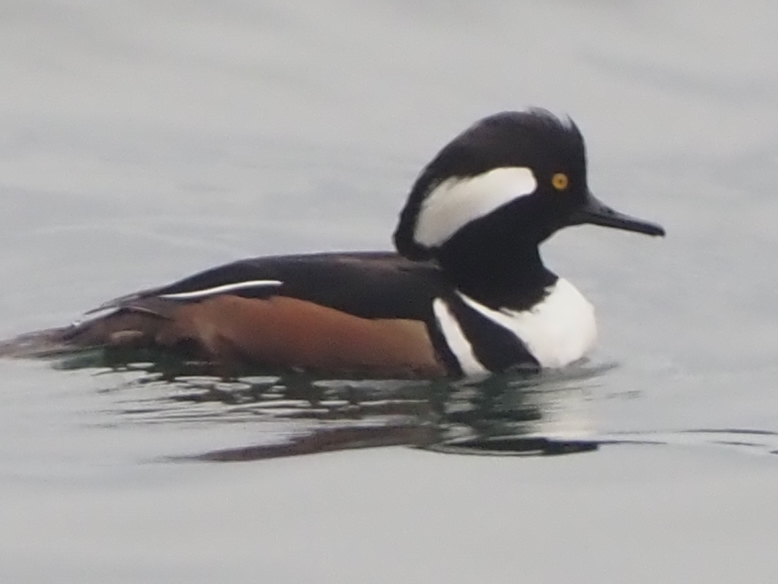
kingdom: Animalia
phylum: Chordata
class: Aves
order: Anseriformes
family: Anatidae
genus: Lophodytes
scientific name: Lophodytes cucullatus
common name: Hooded merganser
